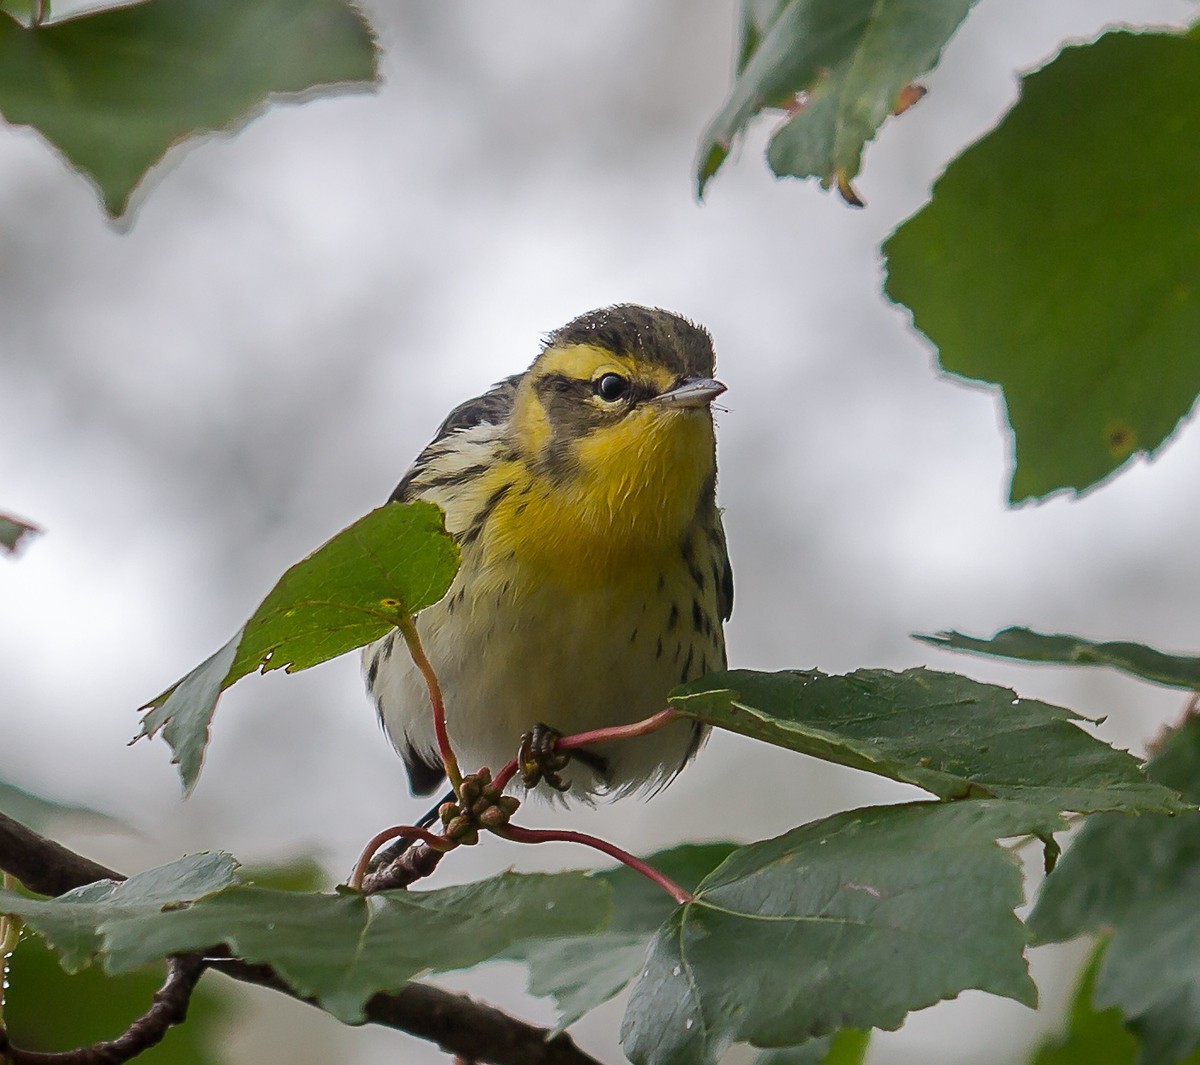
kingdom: Animalia
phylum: Chordata
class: Aves
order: Passeriformes
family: Parulidae
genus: Setophaga
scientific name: Setophaga fusca
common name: Blackburnian warbler
